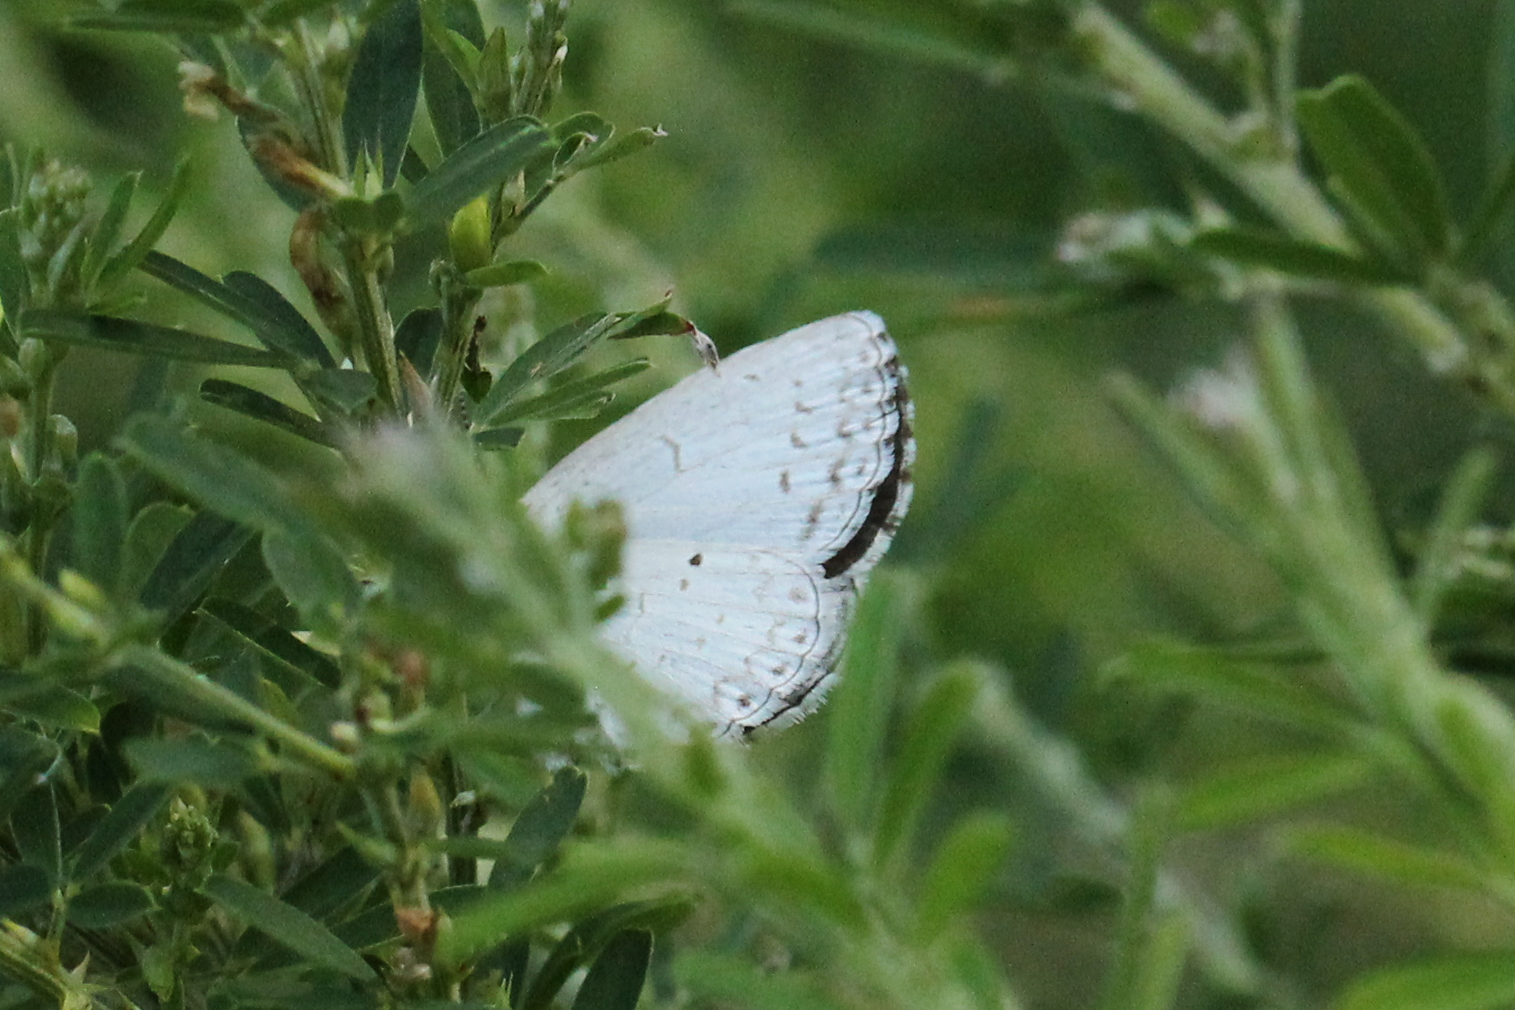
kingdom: Animalia
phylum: Arthropoda
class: Insecta
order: Lepidoptera
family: Lycaenidae
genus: Cyaniris
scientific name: Cyaniris neglecta
